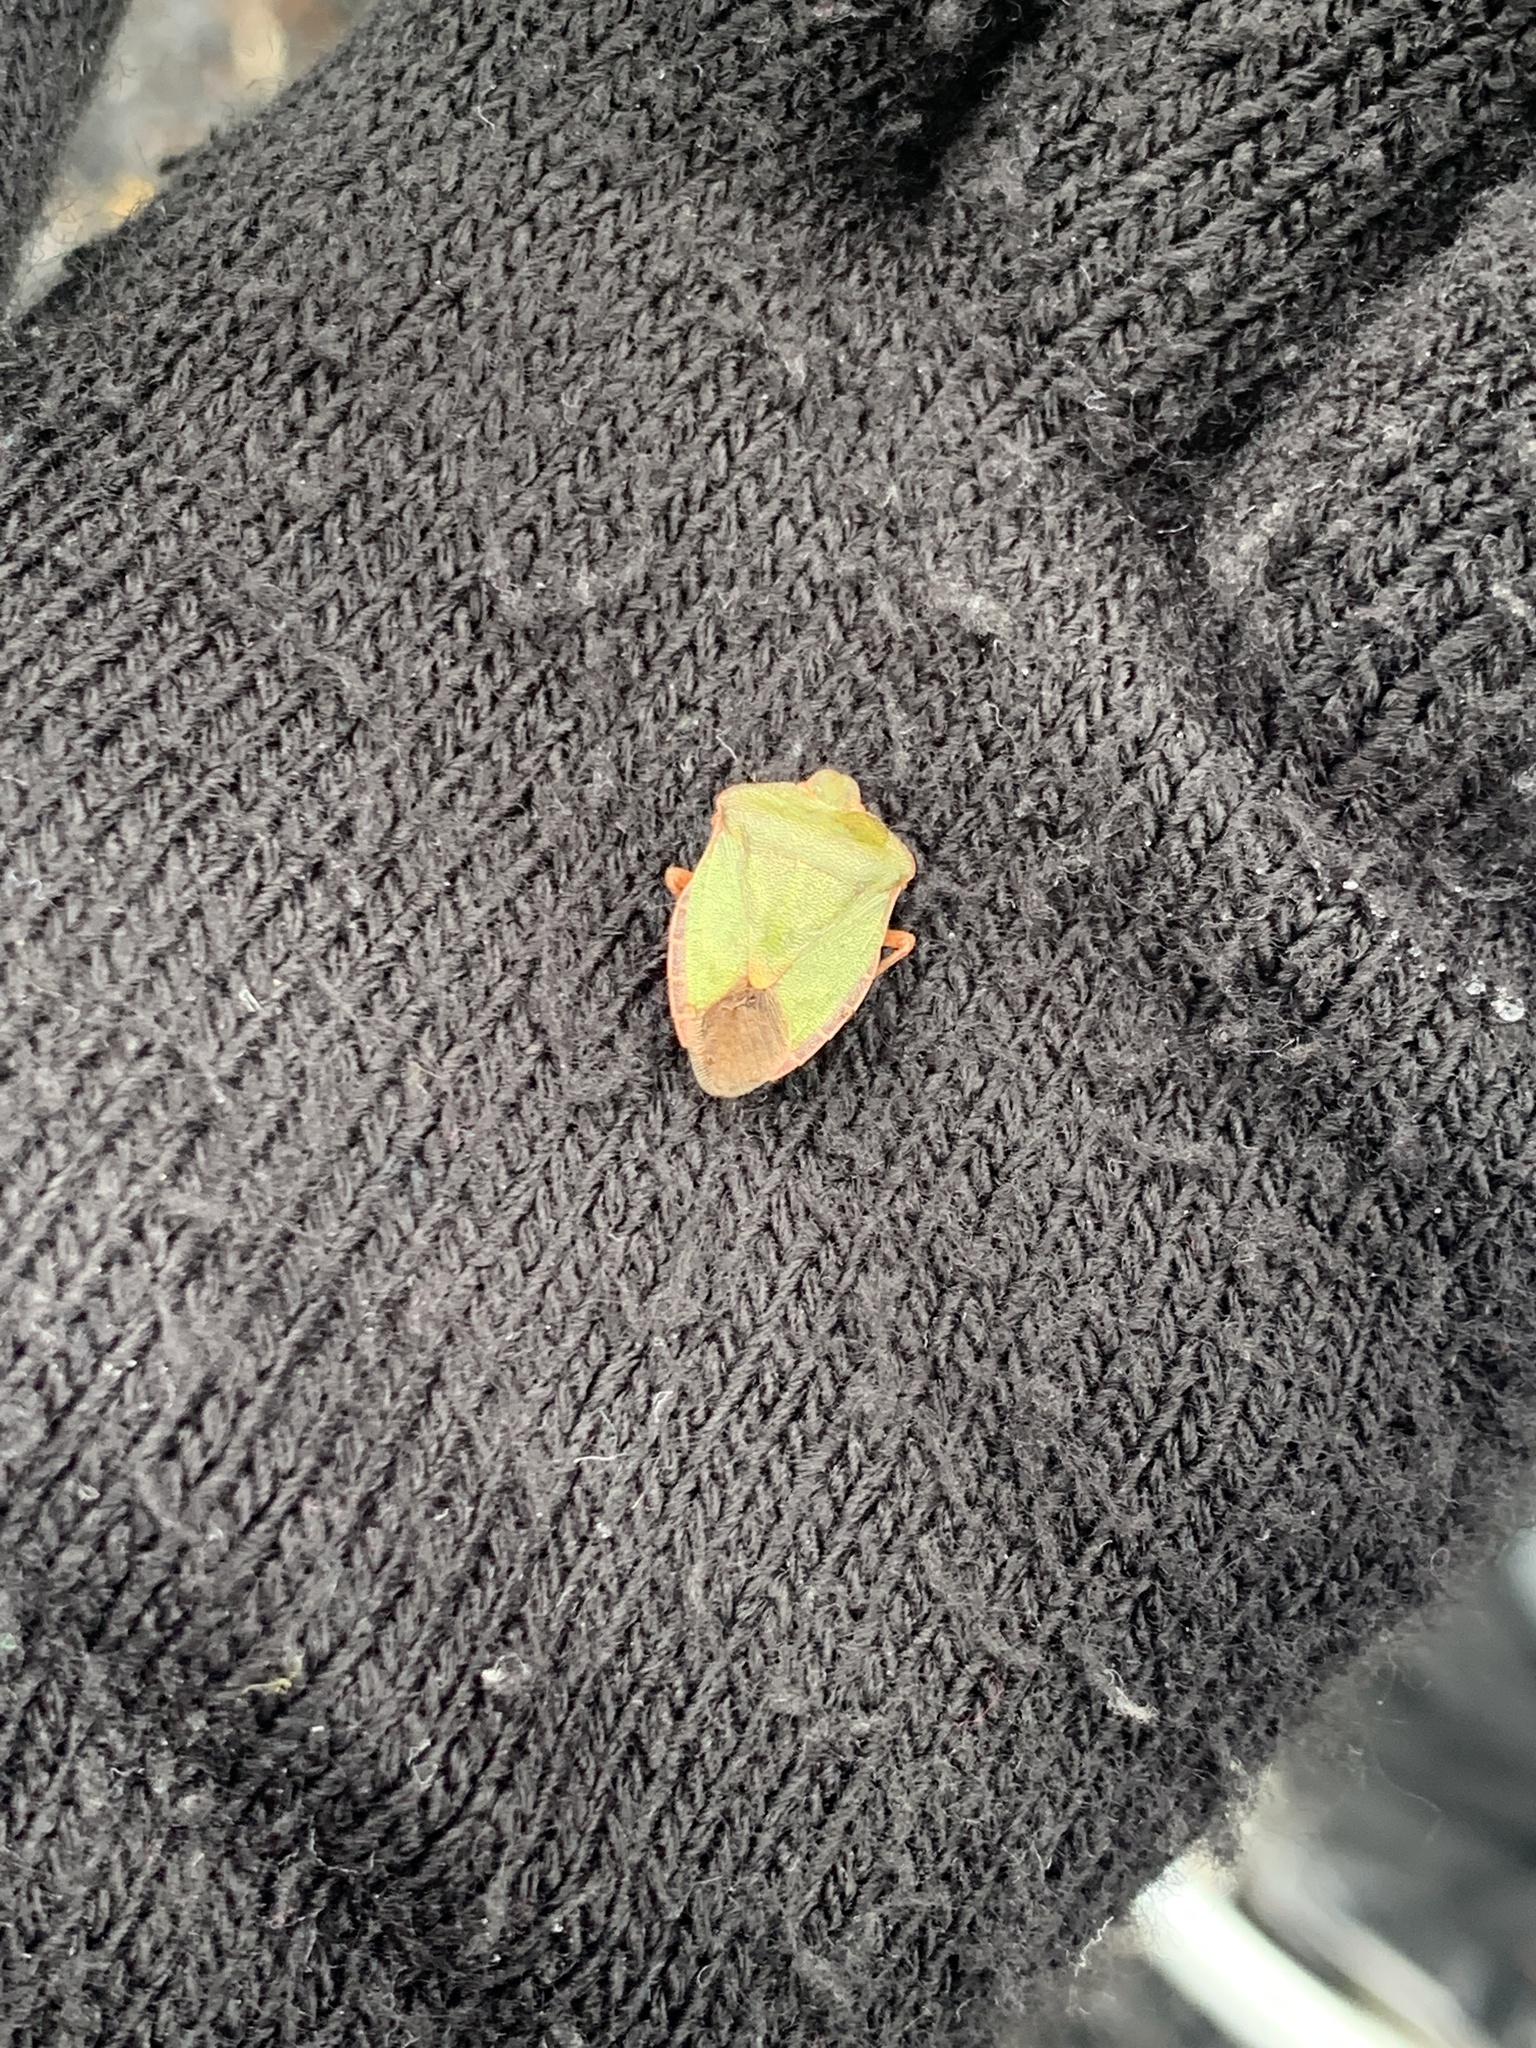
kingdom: Animalia
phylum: Arthropoda
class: Insecta
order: Hemiptera
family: Pentatomidae
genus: Palomena
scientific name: Palomena prasina
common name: Green shieldbug
